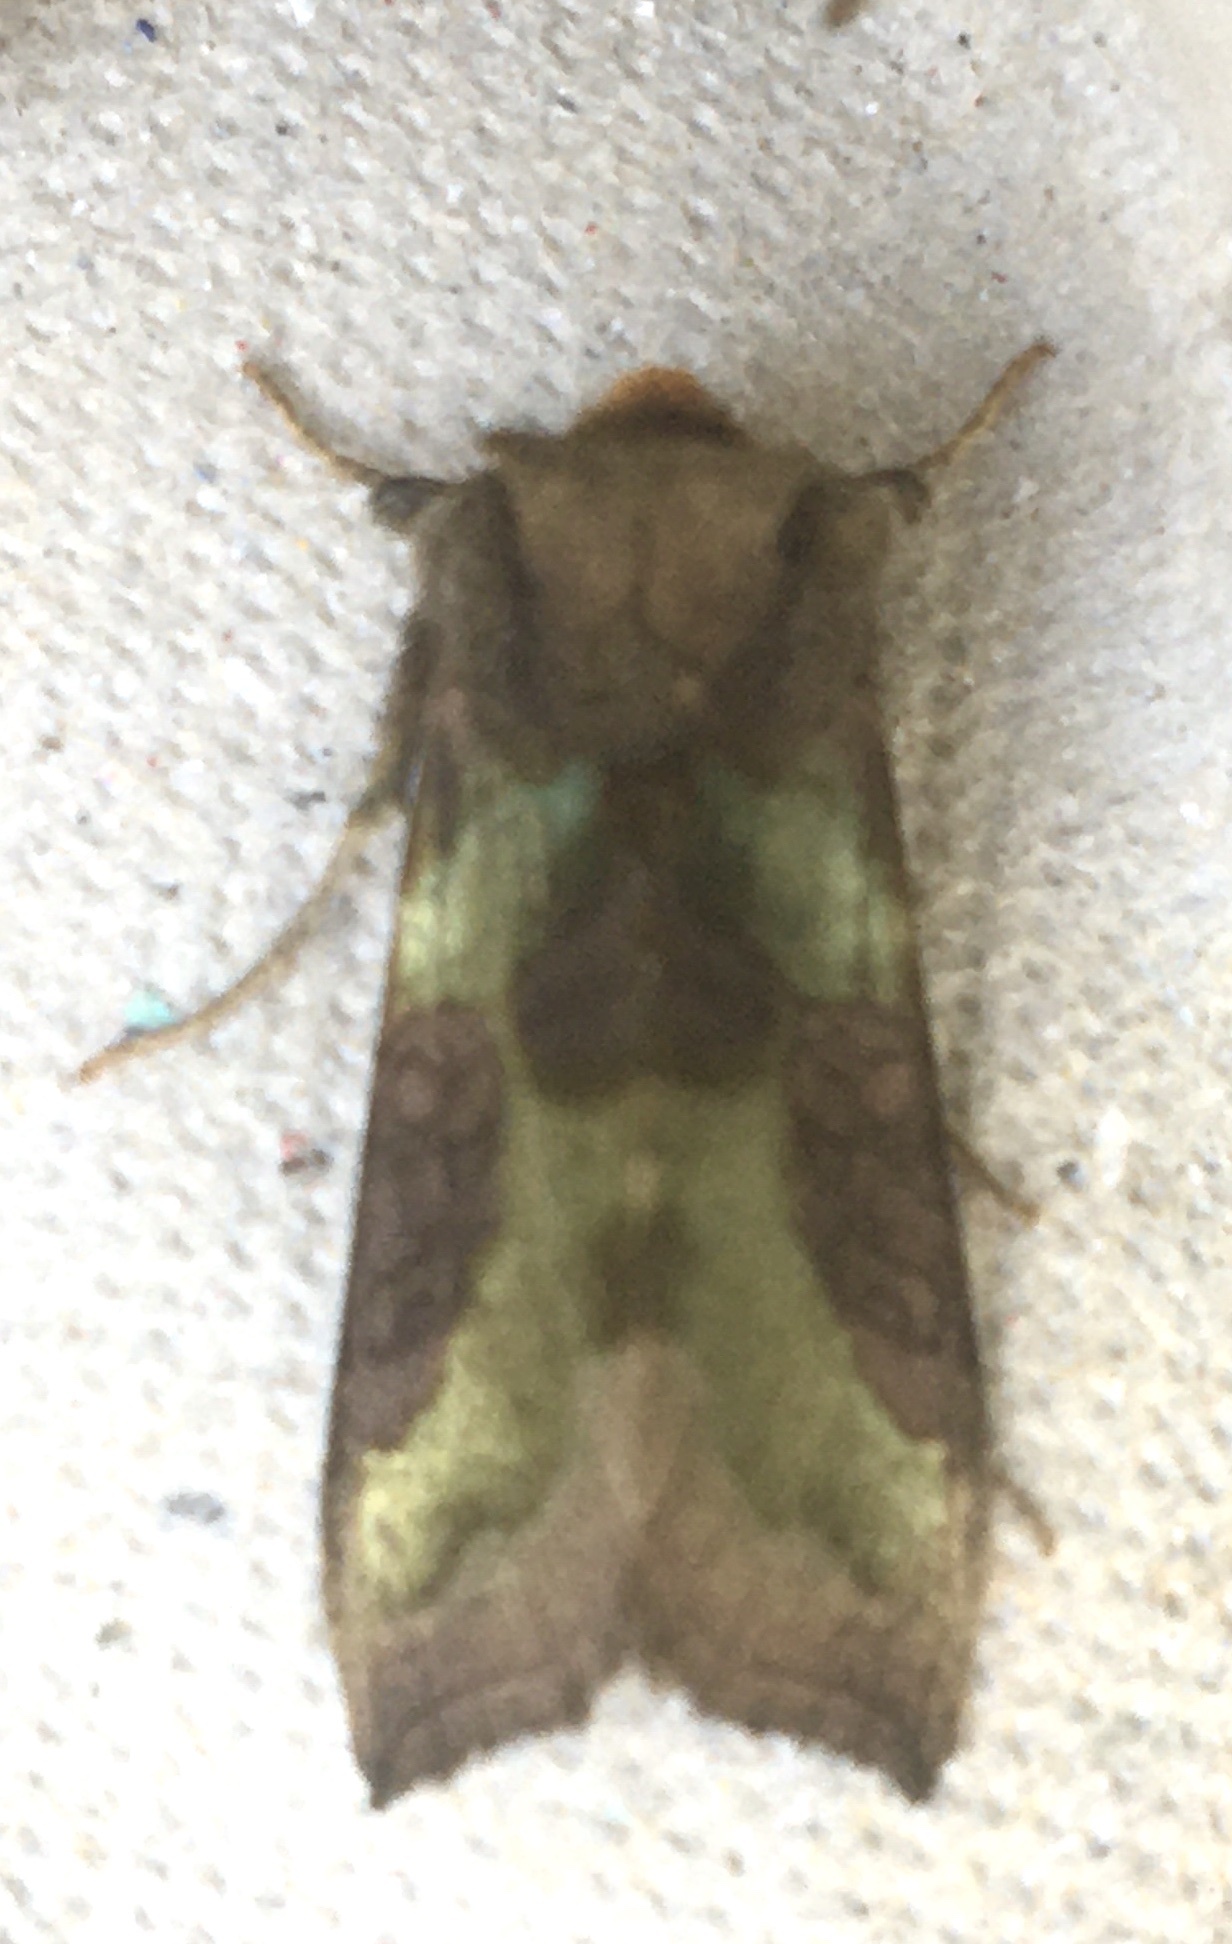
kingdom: Animalia
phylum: Arthropoda
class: Insecta
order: Lepidoptera
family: Noctuidae
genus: Diachrysia
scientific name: Diachrysia chrysitis
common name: Burnished brass
